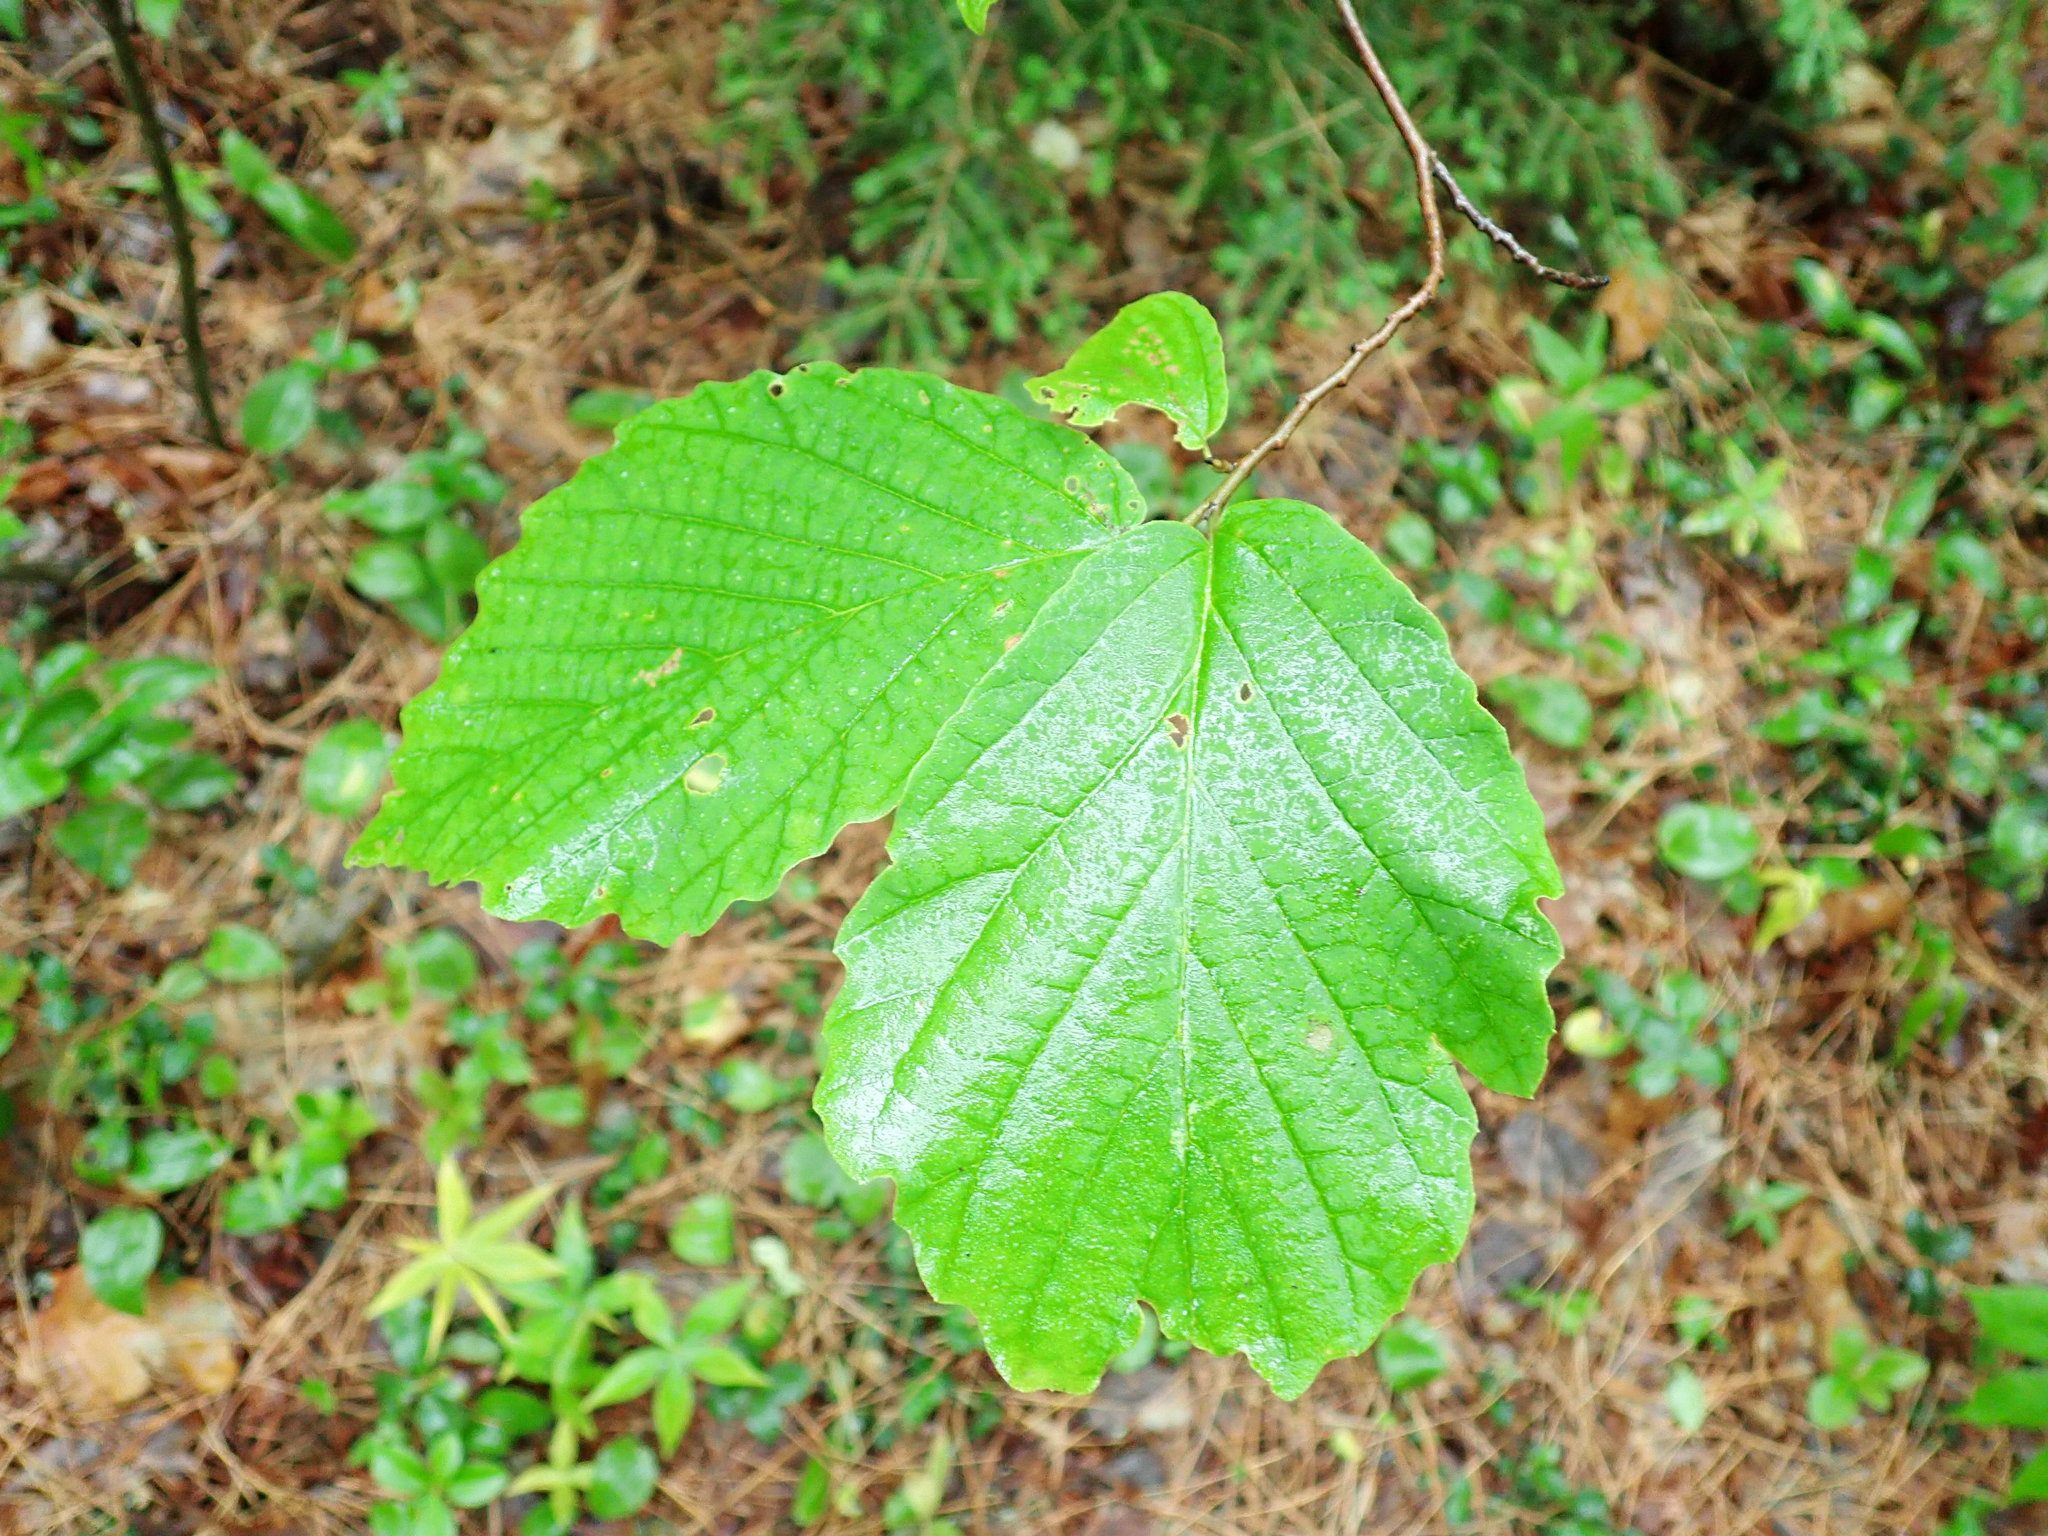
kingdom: Plantae
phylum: Tracheophyta
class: Magnoliopsida
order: Saxifragales
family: Hamamelidaceae
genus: Hamamelis
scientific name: Hamamelis virginiana
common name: Witch-hazel
